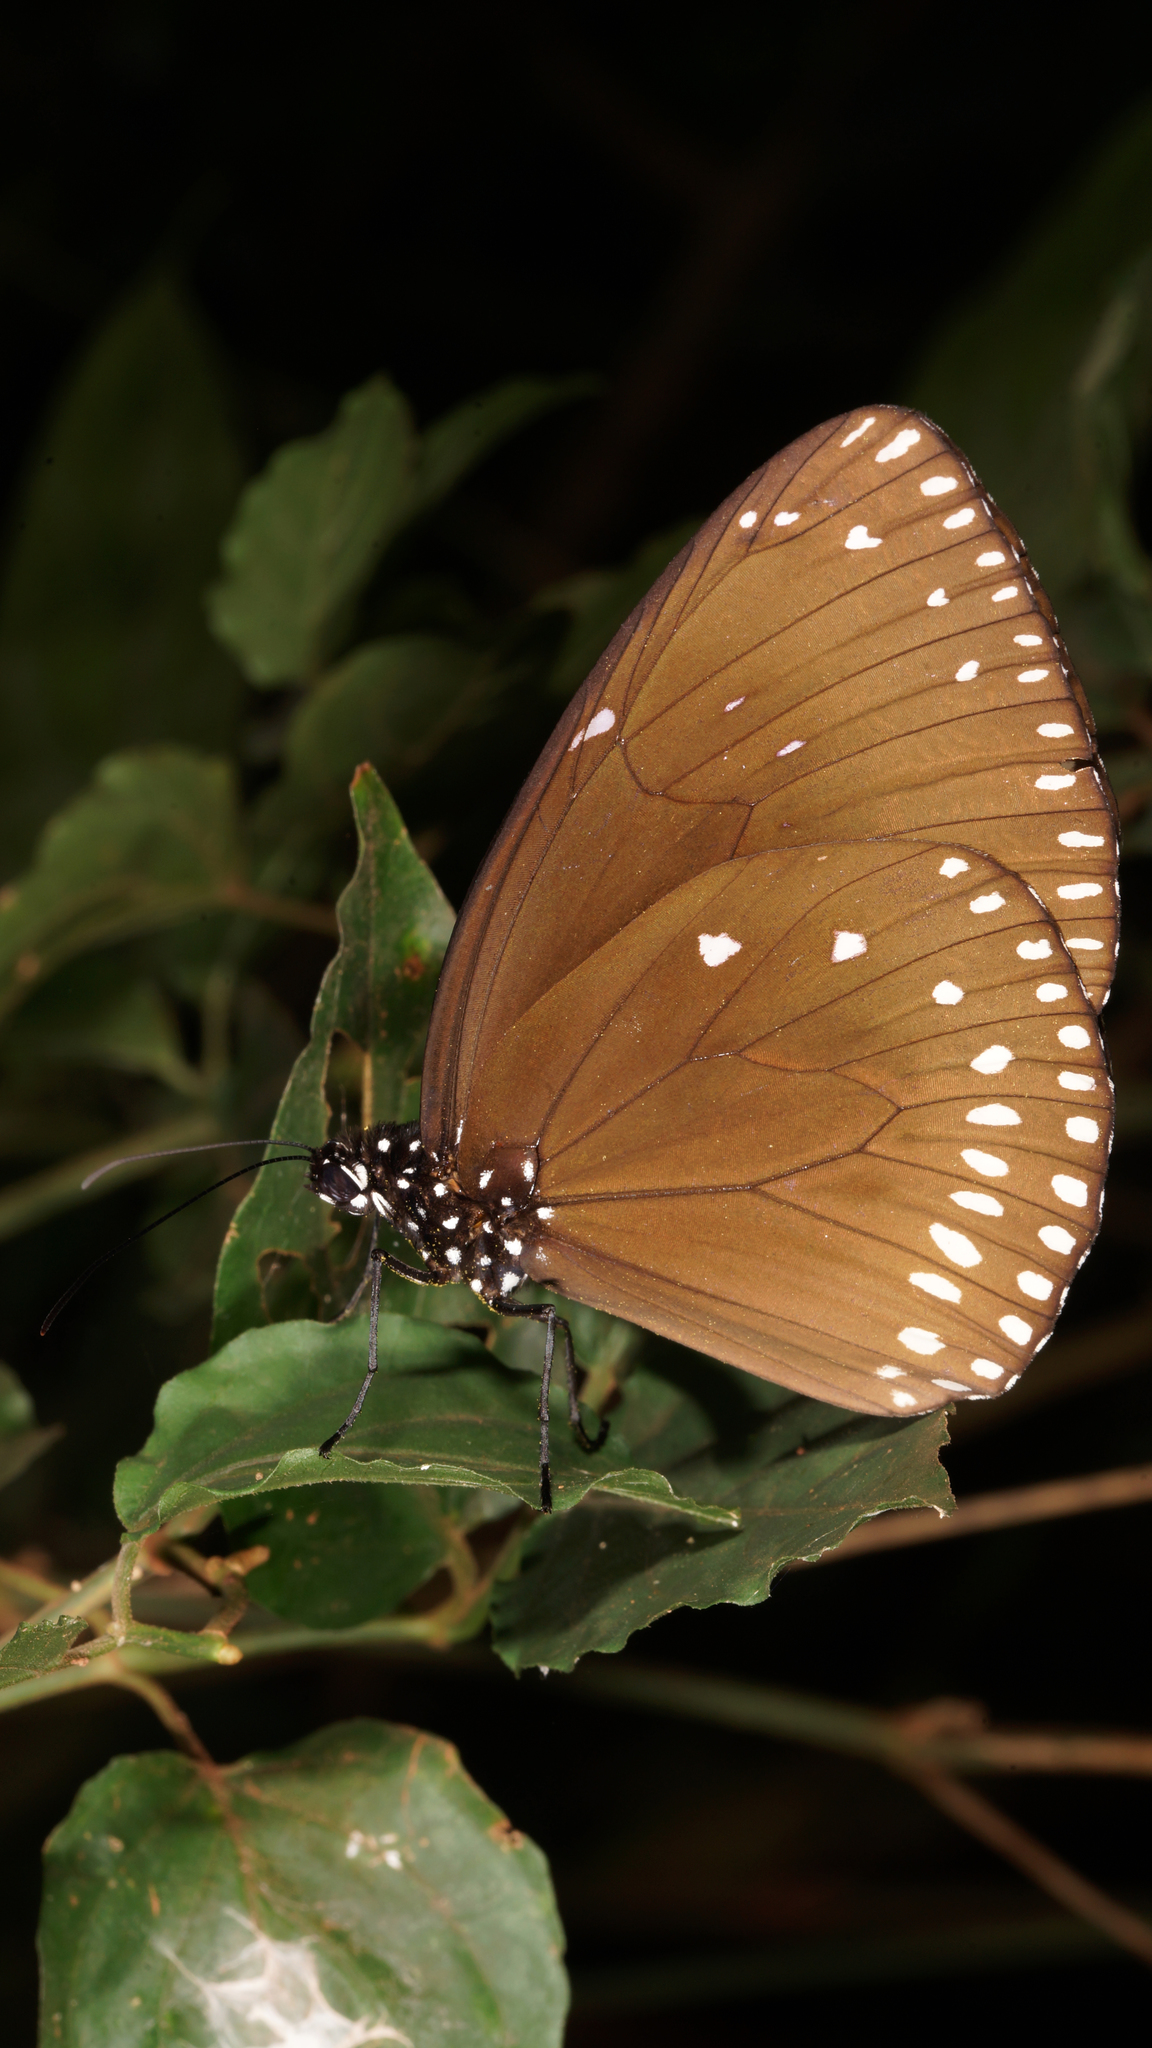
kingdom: Animalia
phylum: Arthropoda
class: Insecta
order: Lepidoptera
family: Nymphalidae
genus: Euploea
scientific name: Euploea klugii
